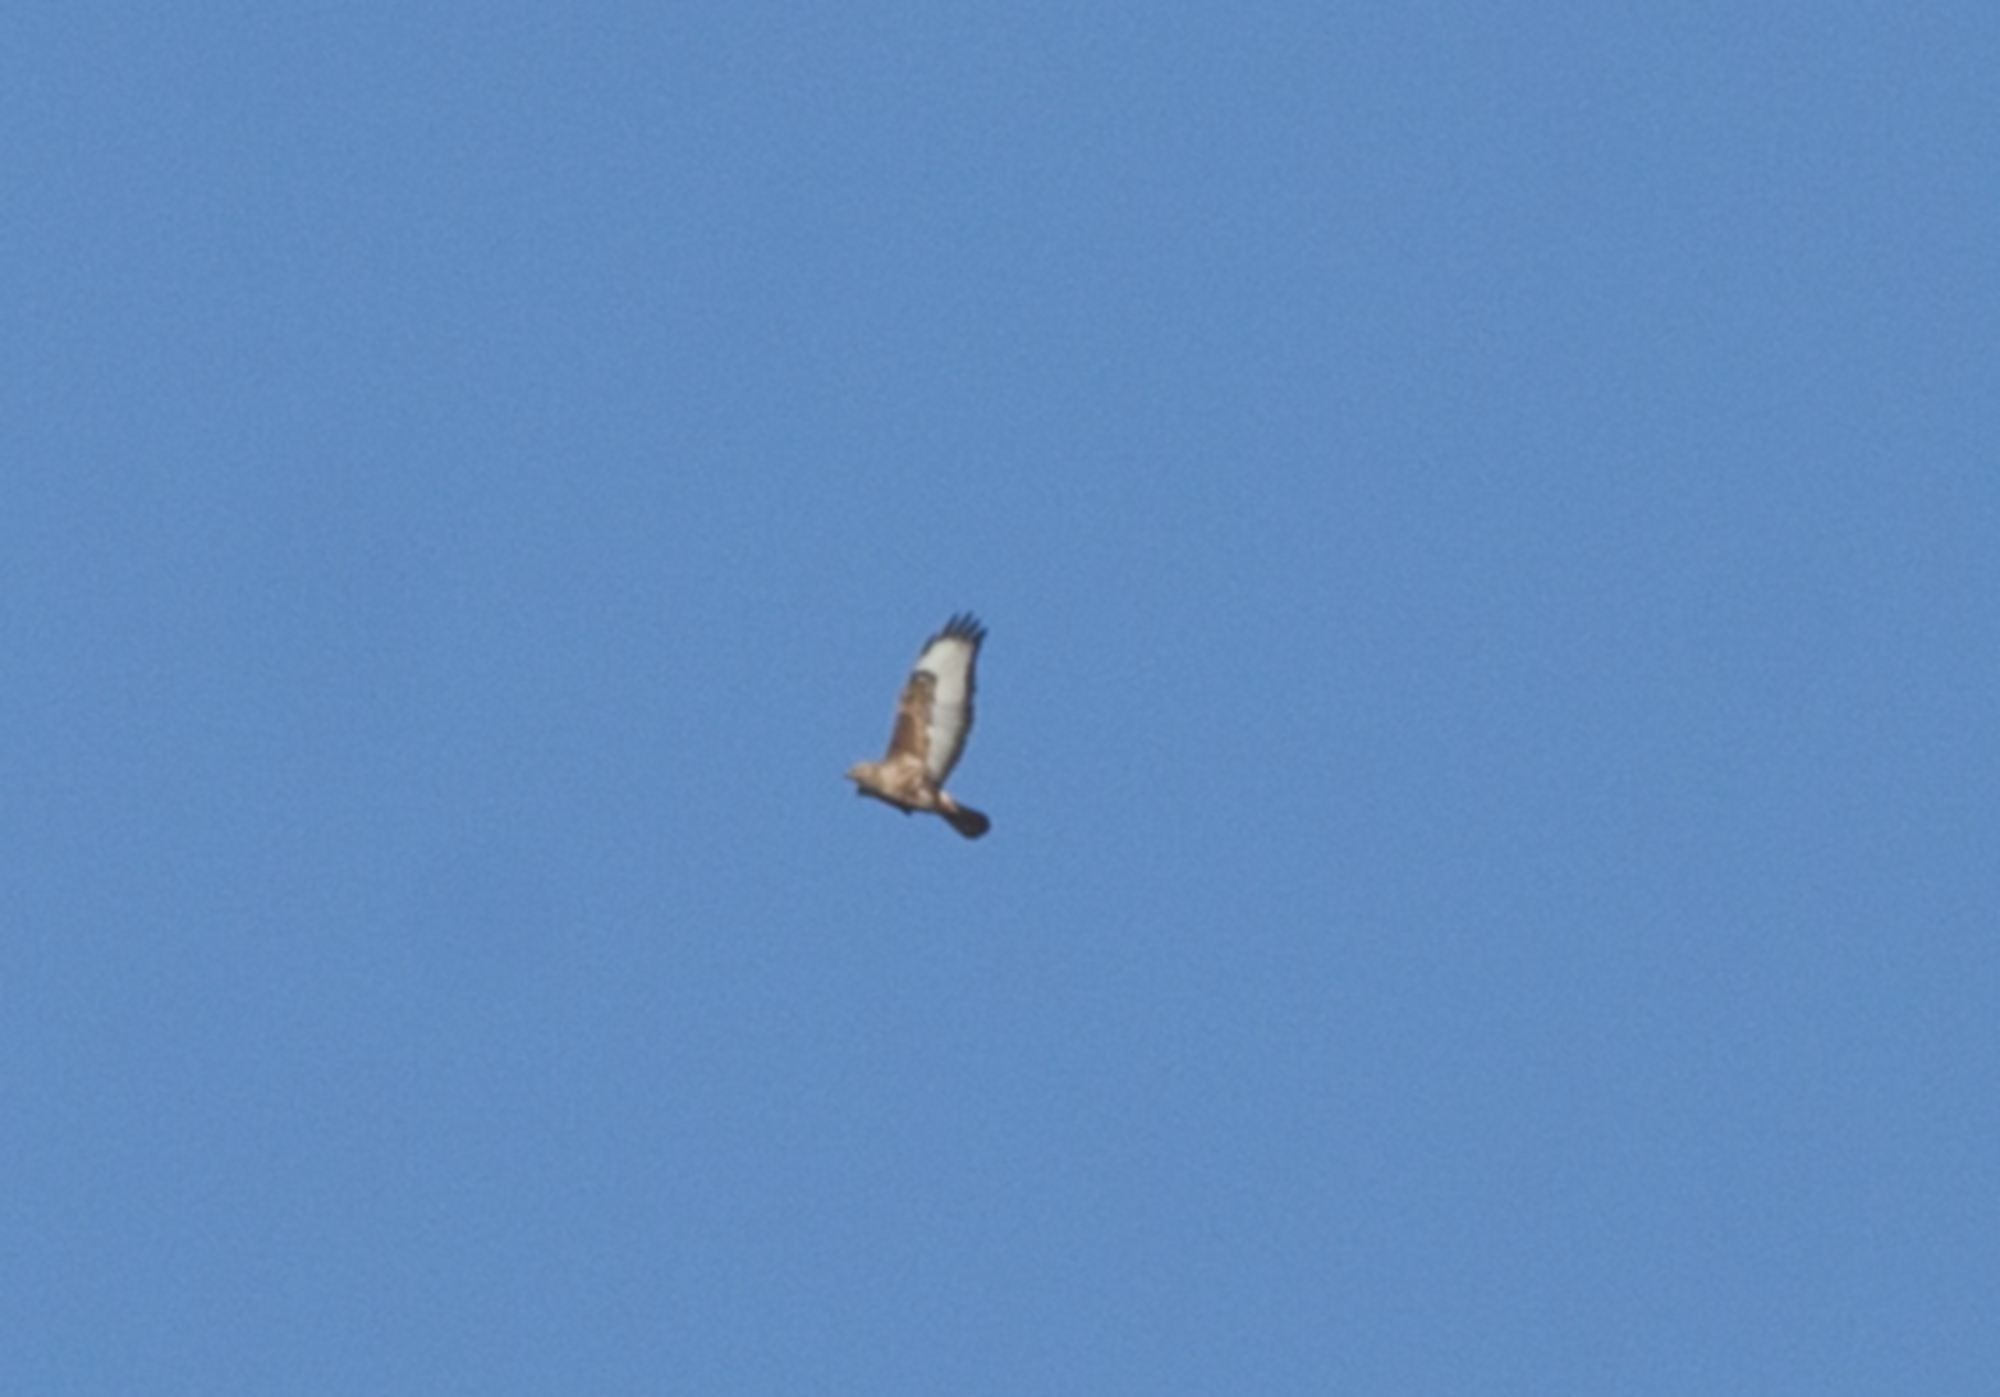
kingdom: Animalia
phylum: Chordata
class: Aves
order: Accipitriformes
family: Accipitridae
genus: Buteo
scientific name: Buteo buteo
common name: Common buzzard
